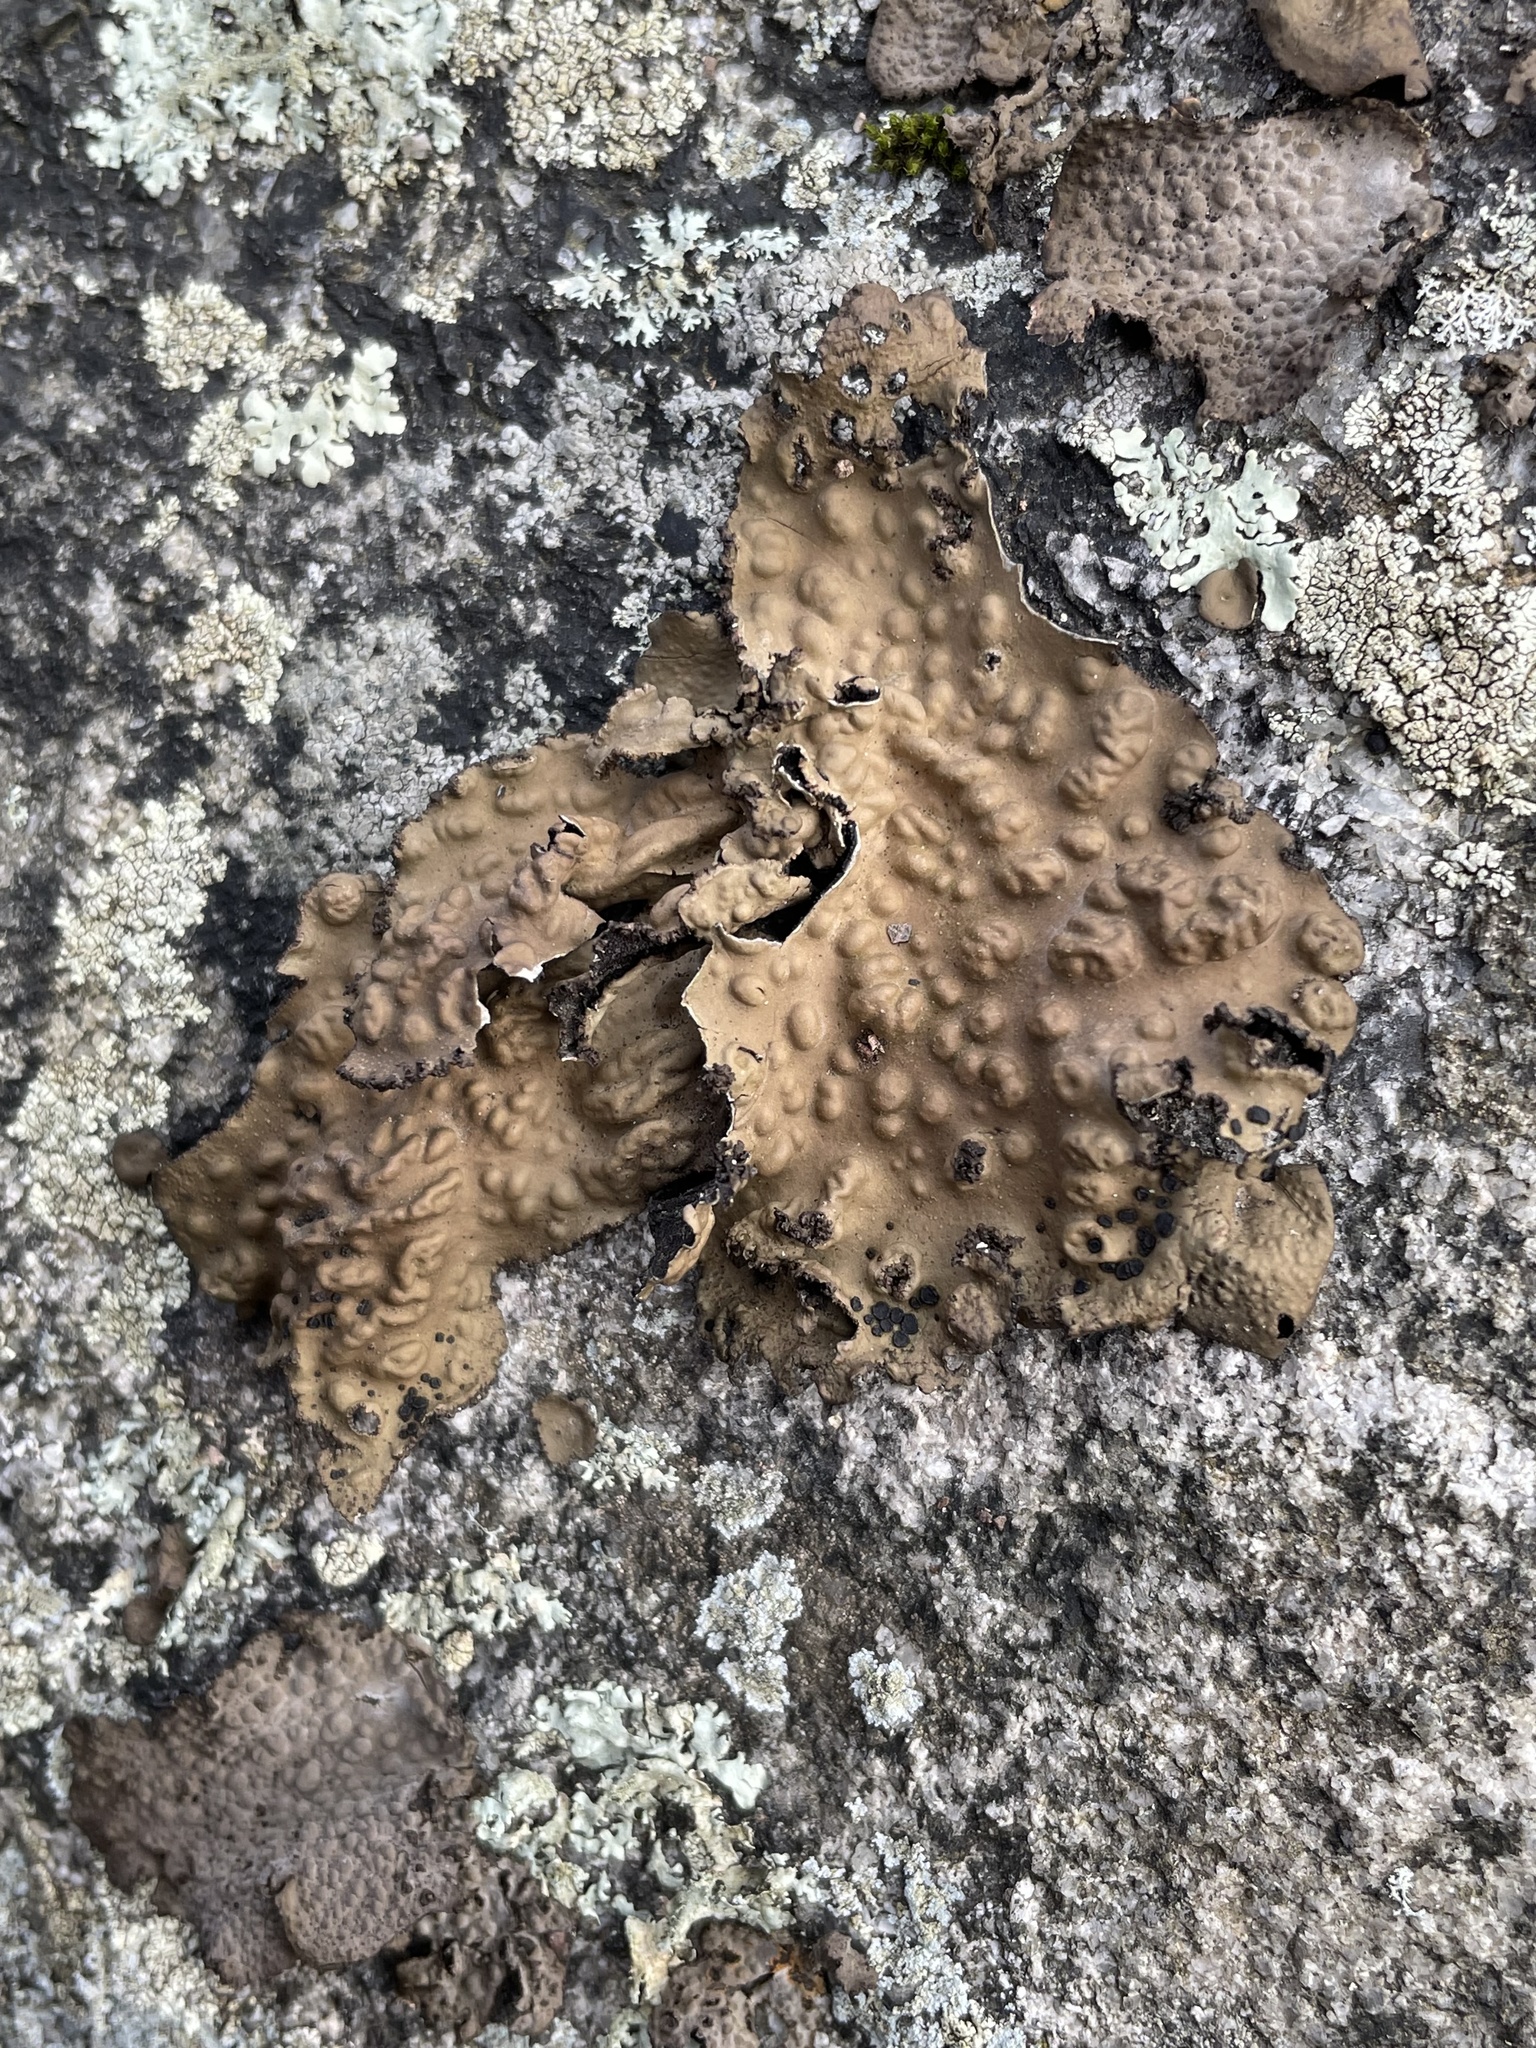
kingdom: Fungi
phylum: Ascomycota
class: Lecanoromycetes
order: Umbilicariales
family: Umbilicariaceae
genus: Lasallia
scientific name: Lasallia pensylvanica
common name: Blackened toadskin lichen
